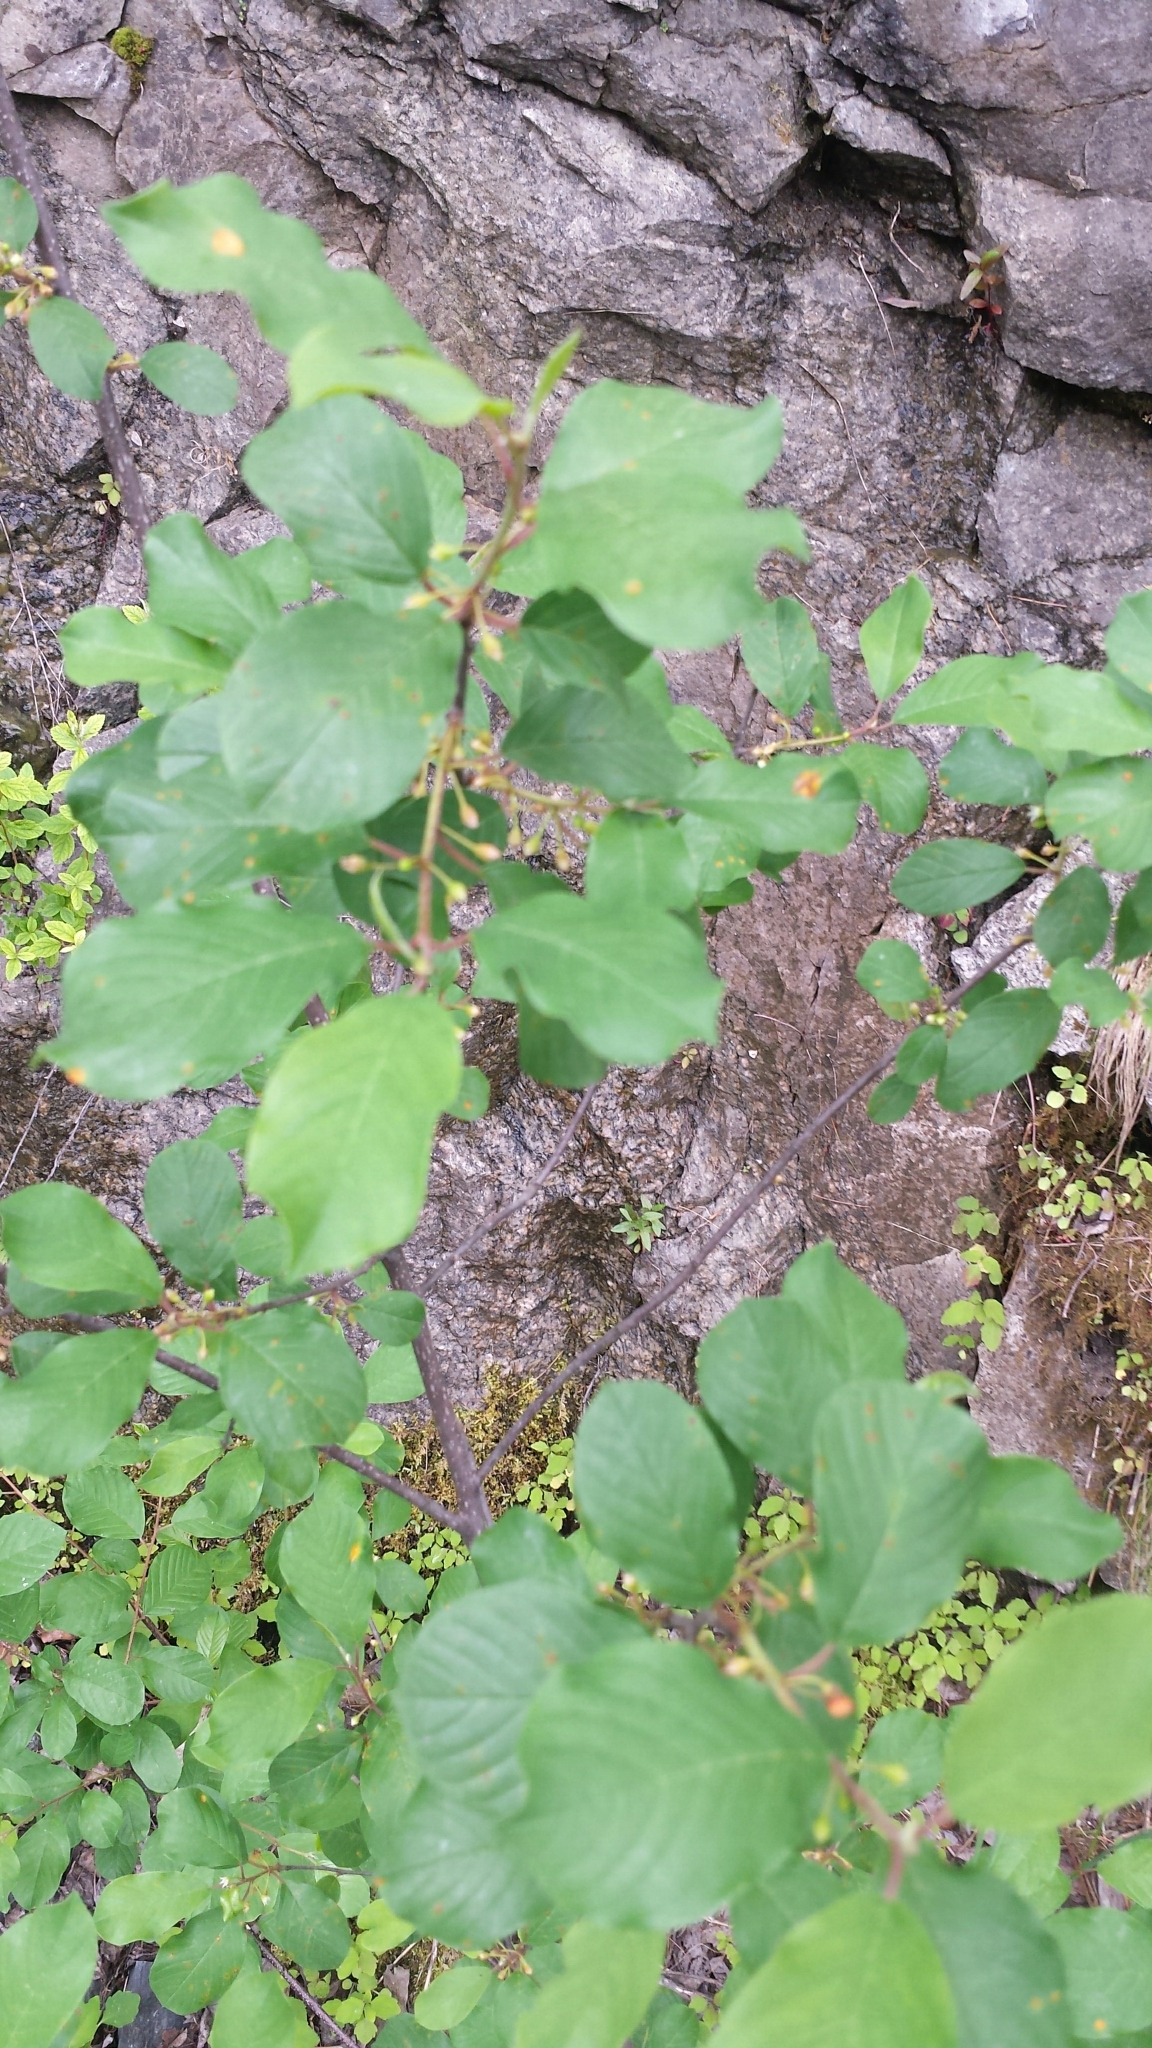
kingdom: Plantae
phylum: Tracheophyta
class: Magnoliopsida
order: Rosales
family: Rhamnaceae
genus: Frangula
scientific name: Frangula alnus
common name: Alder buckthorn
